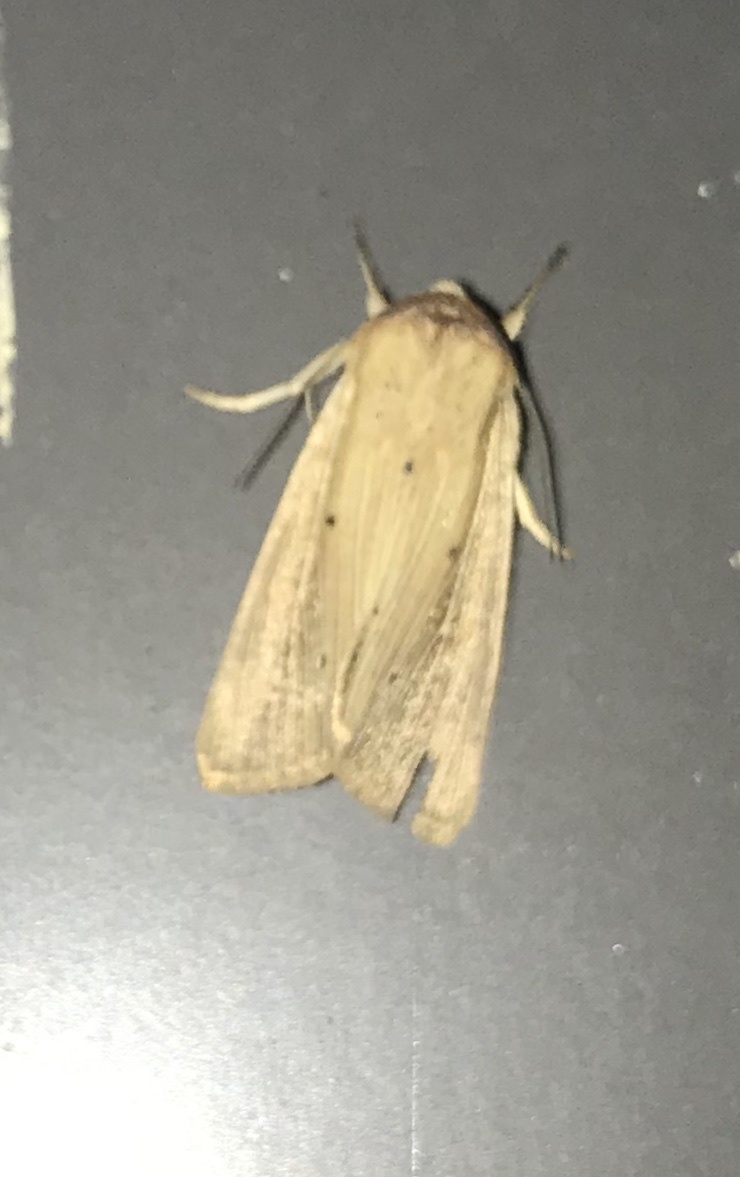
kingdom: Animalia
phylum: Arthropoda
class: Insecta
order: Lepidoptera
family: Noctuidae
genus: Leucania
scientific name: Leucania adjuta
